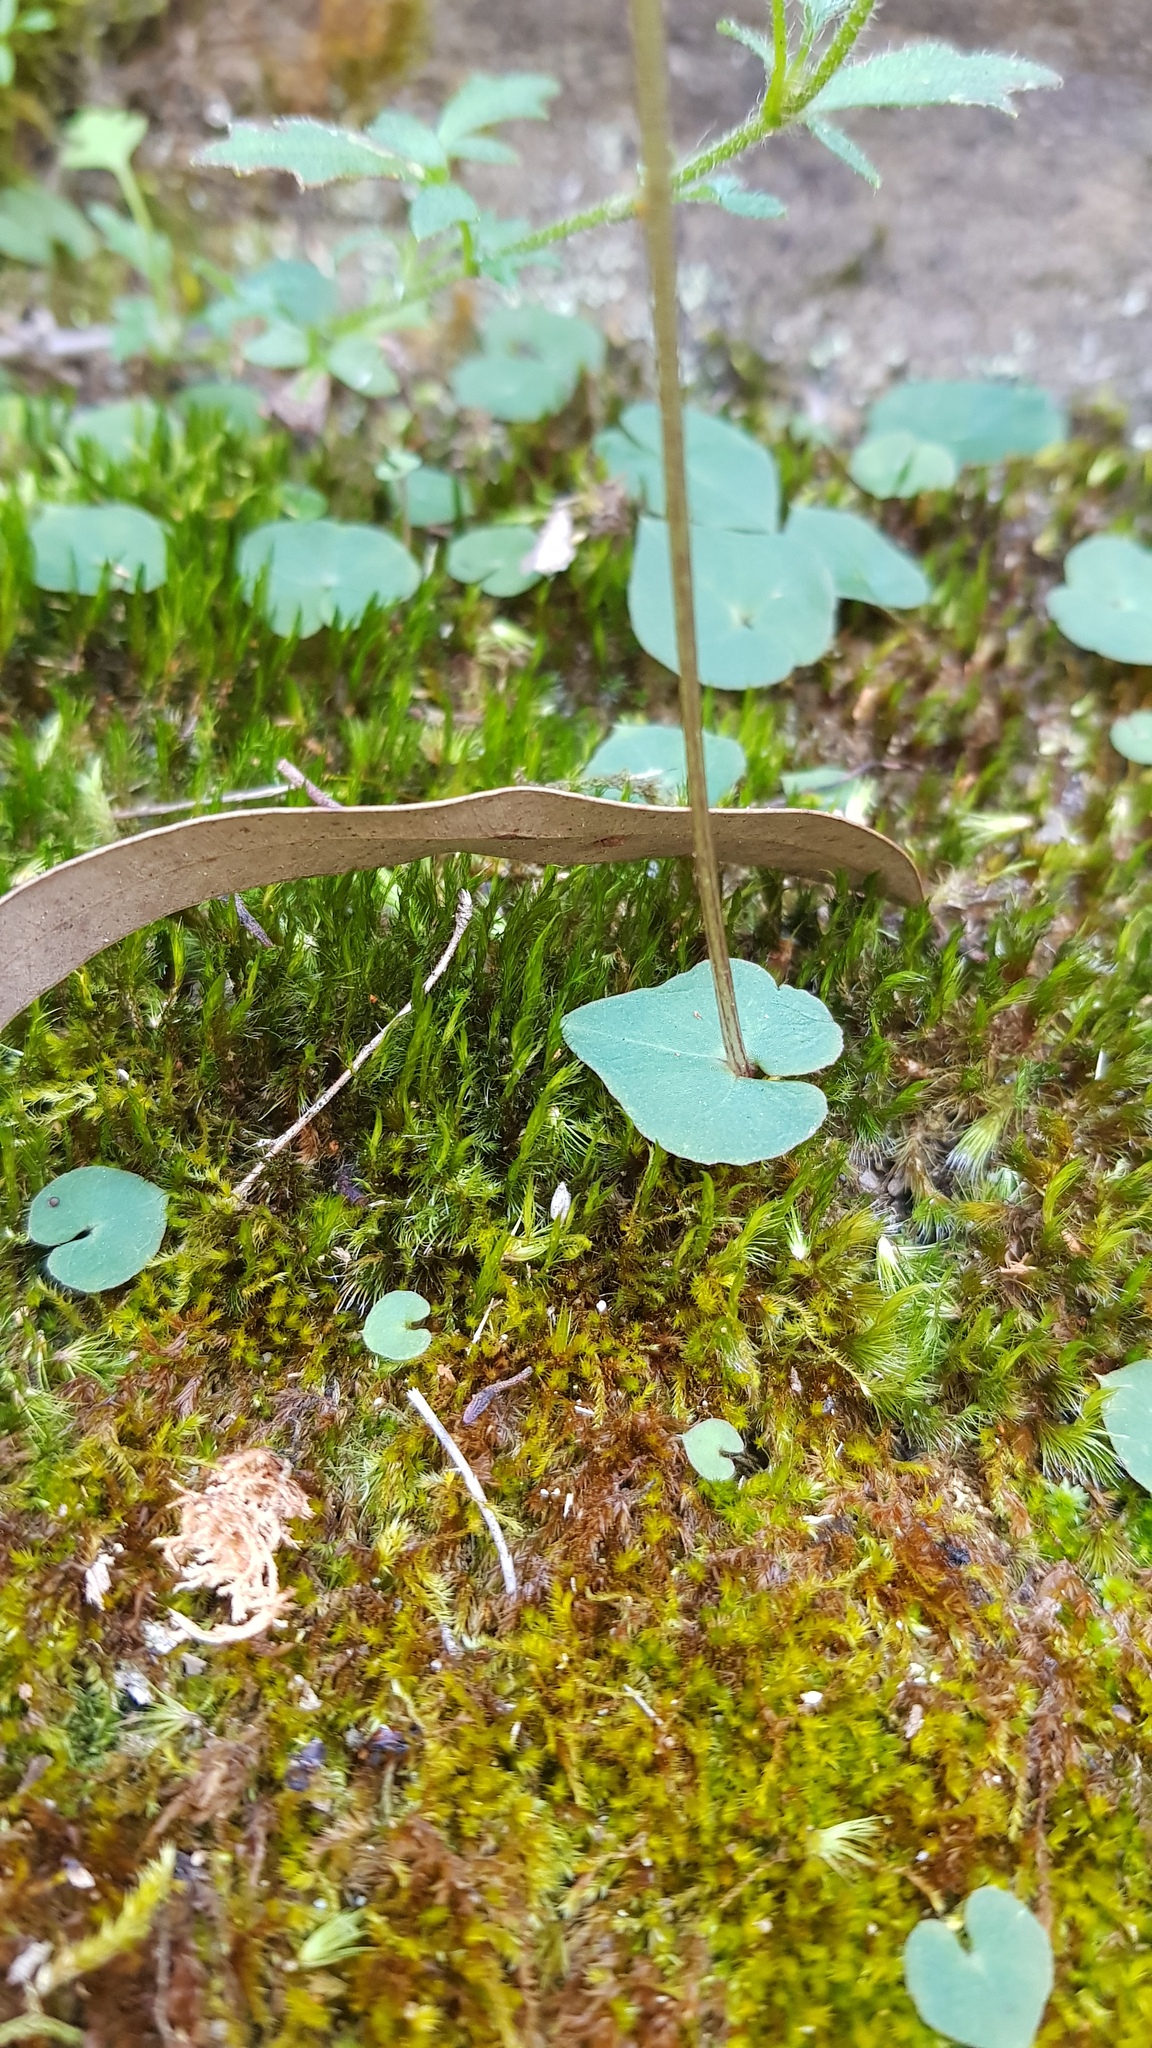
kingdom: Plantae
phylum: Tracheophyta
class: Liliopsida
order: Asparagales
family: Orchidaceae
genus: Acianthus
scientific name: Acianthus fornicatus
